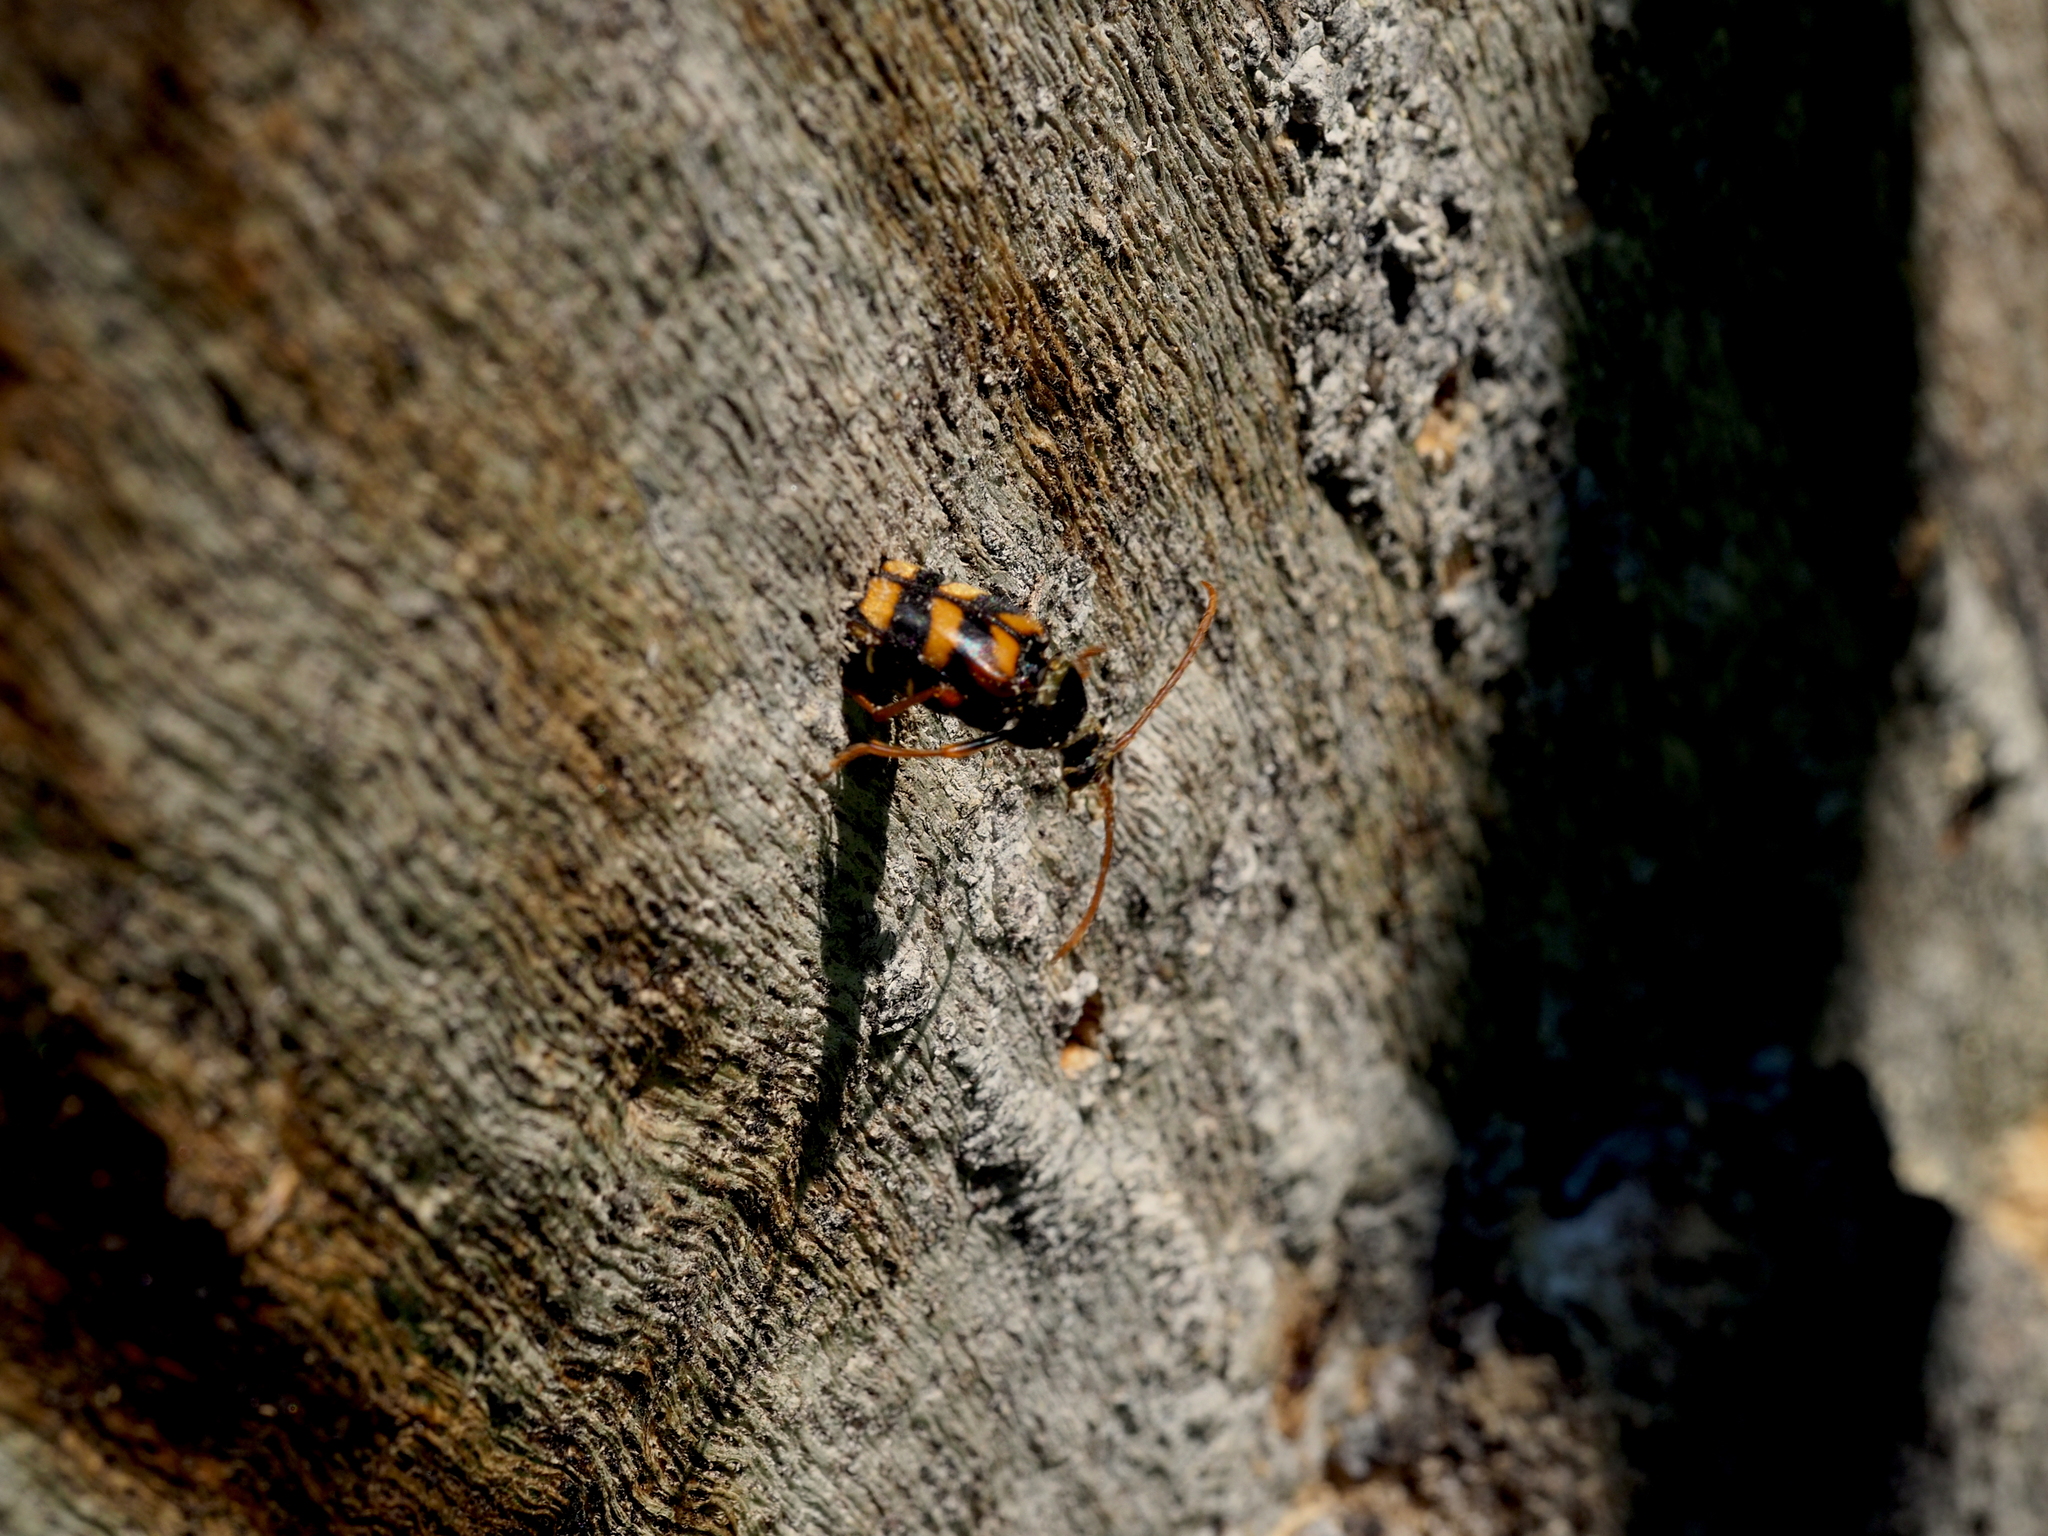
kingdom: Animalia
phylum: Arthropoda
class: Insecta
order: Coleoptera
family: Cerambycidae
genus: Leptura
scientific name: Leptura aurulenta
